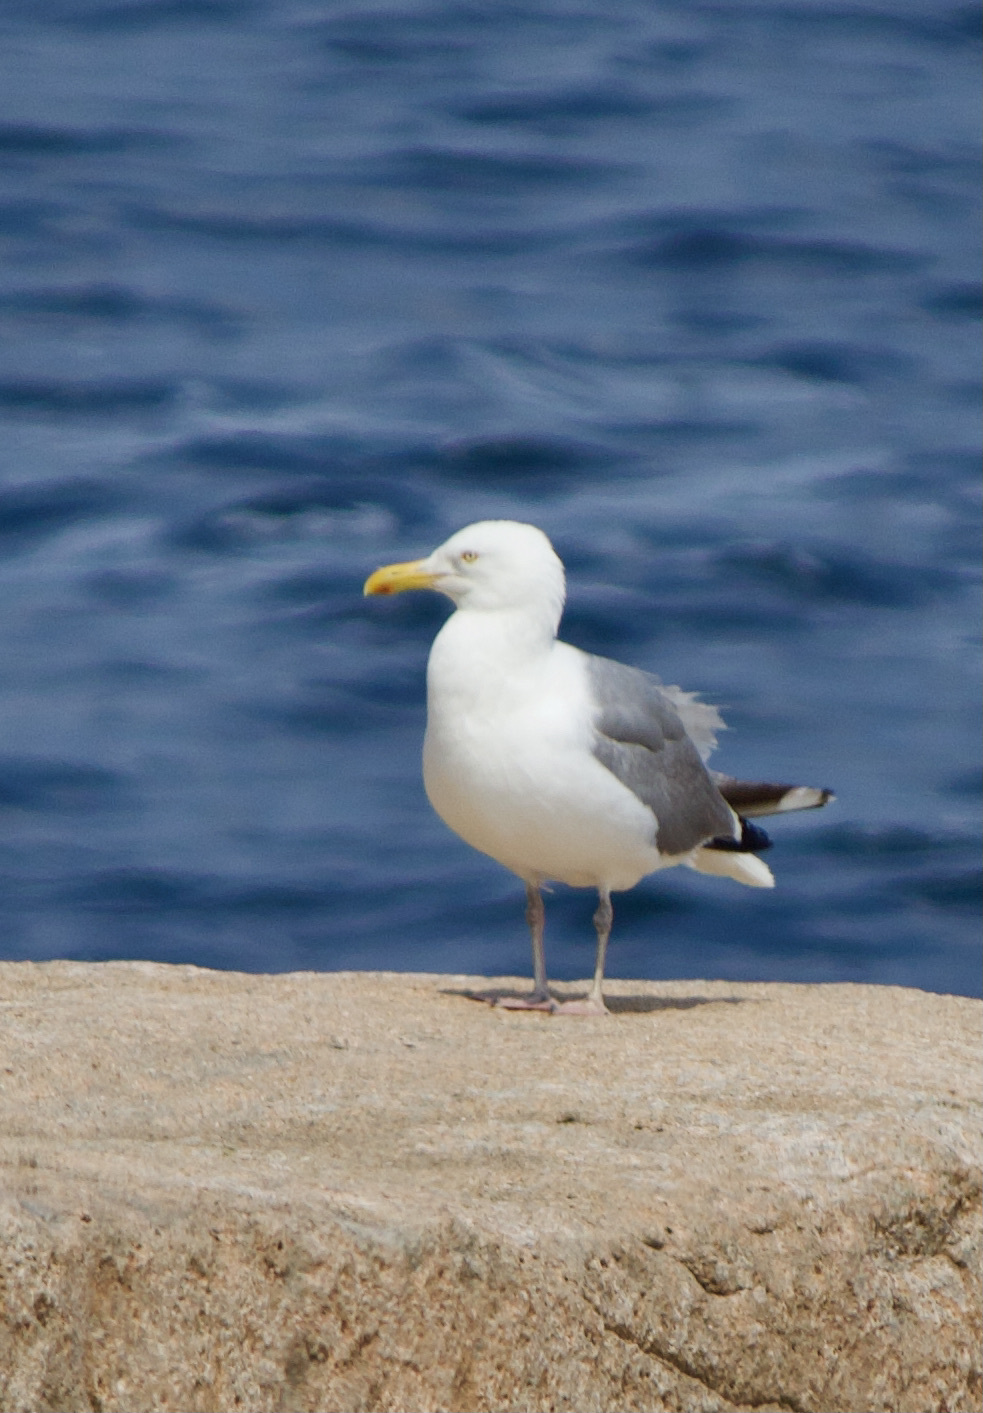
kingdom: Animalia
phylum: Chordata
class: Aves
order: Charadriiformes
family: Laridae
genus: Larus
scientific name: Larus argentatus
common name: Herring gull
